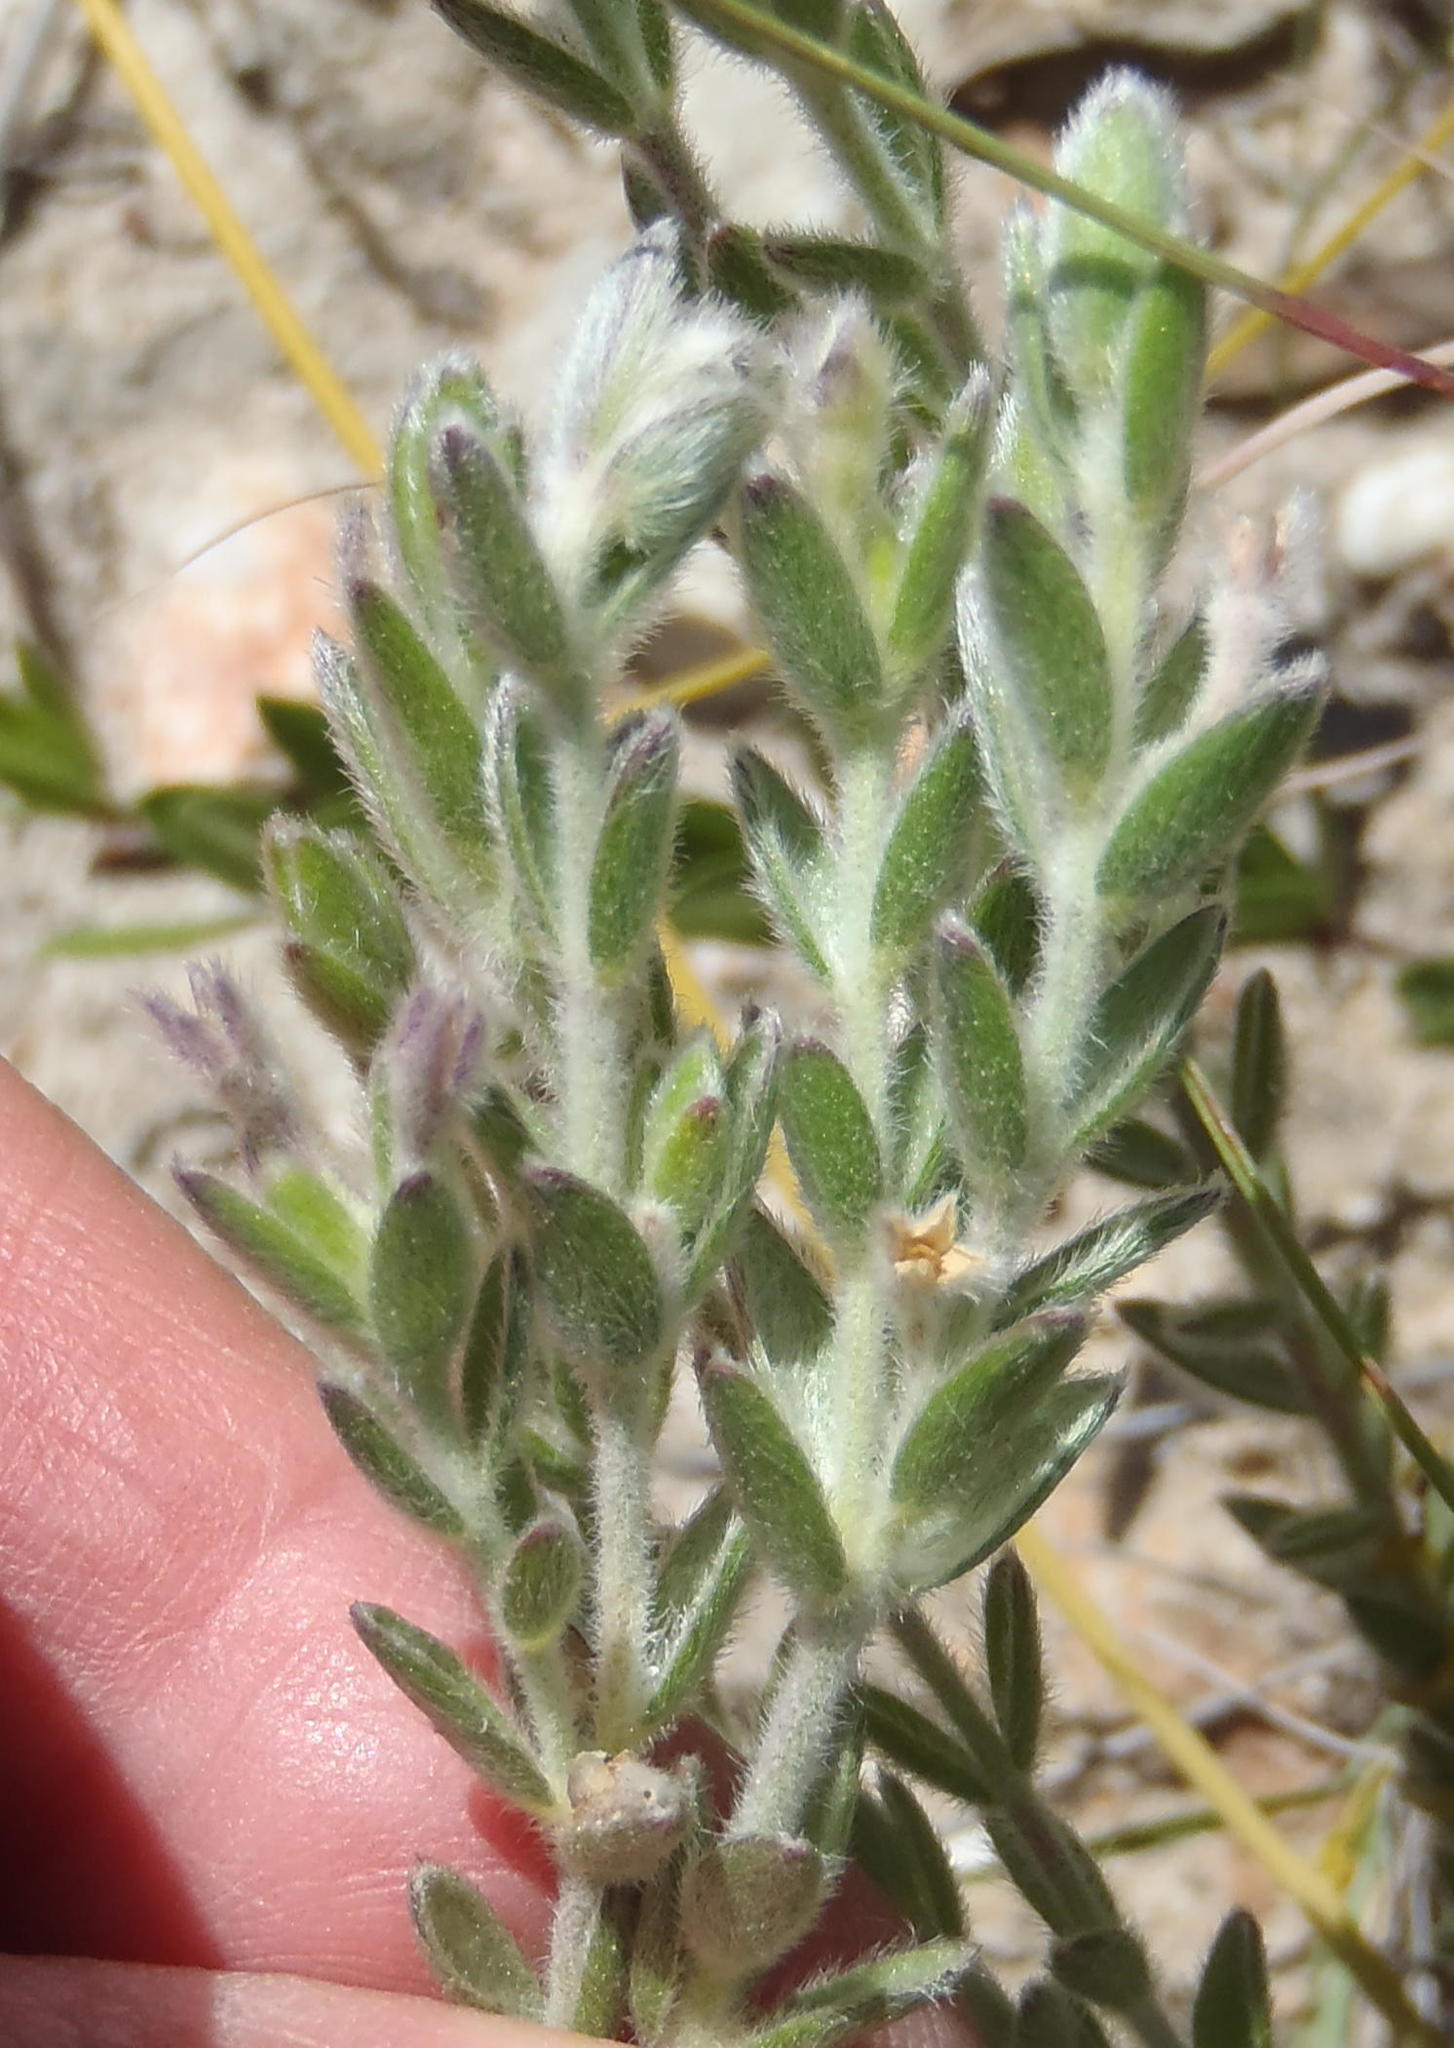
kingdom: Plantae
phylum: Tracheophyta
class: Magnoliopsida
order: Malvales
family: Thymelaeaceae
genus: Gnidia
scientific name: Gnidia nodiflora
